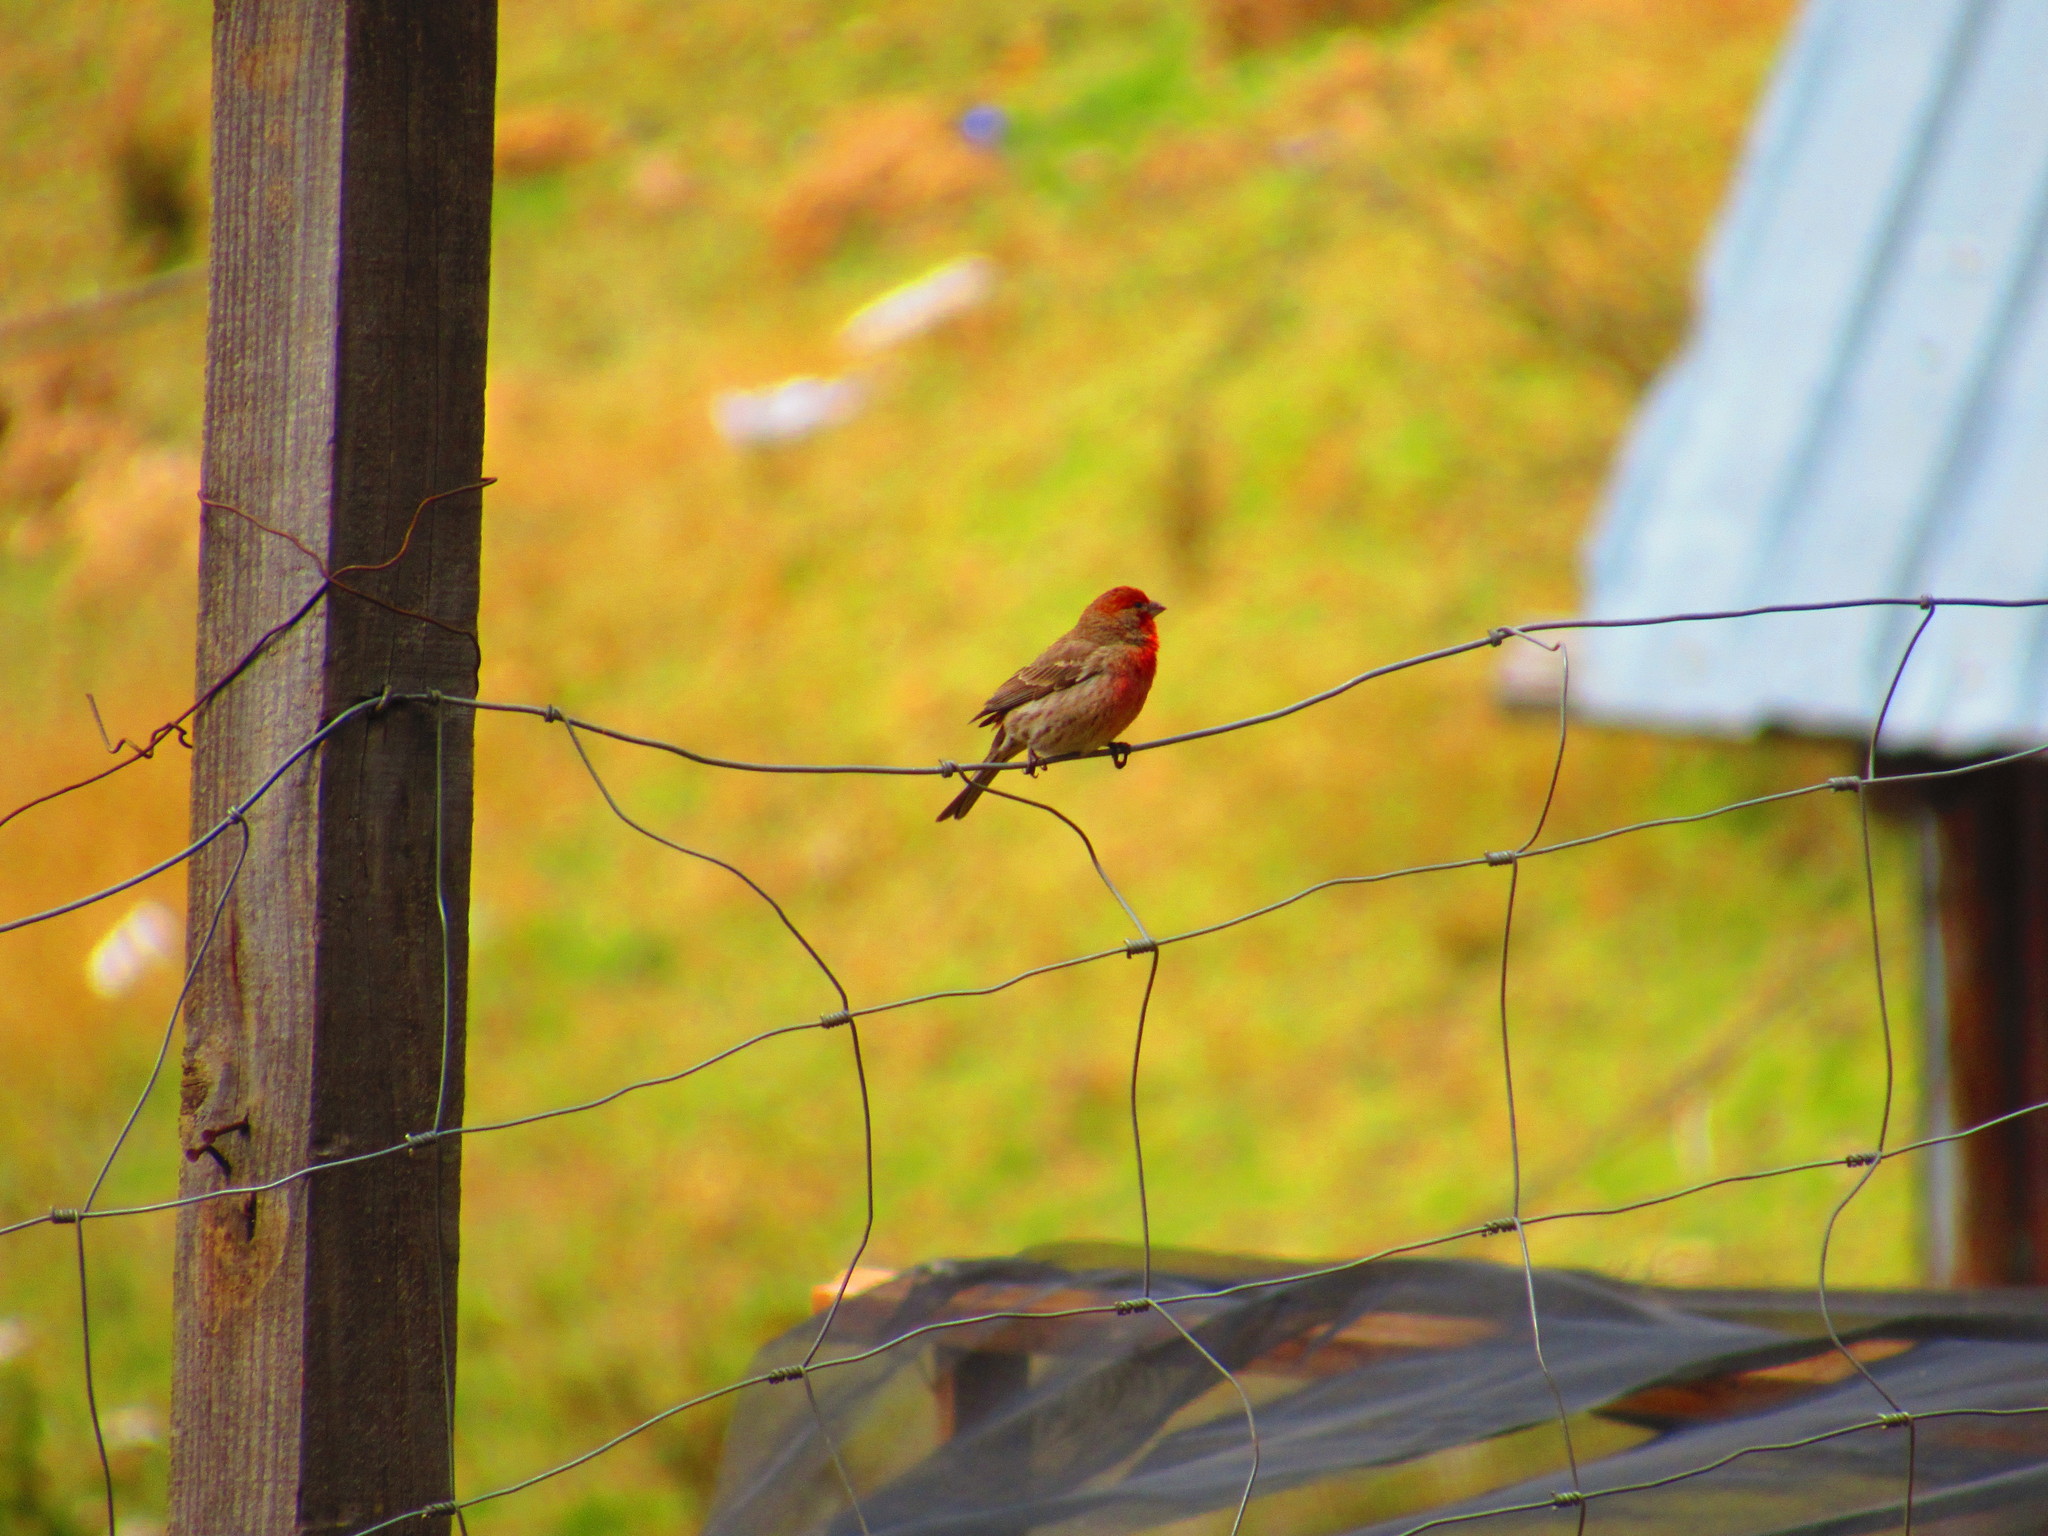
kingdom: Animalia
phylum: Chordata
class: Aves
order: Passeriformes
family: Fringillidae
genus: Haemorhous
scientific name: Haemorhous mexicanus
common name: House finch
